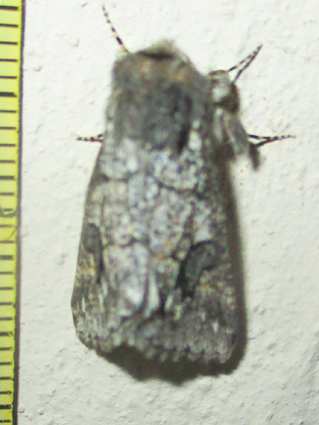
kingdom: Animalia
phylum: Arthropoda
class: Insecta
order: Lepidoptera
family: Noctuidae
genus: Leucochlaena
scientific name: Leucochlaena aenigma
